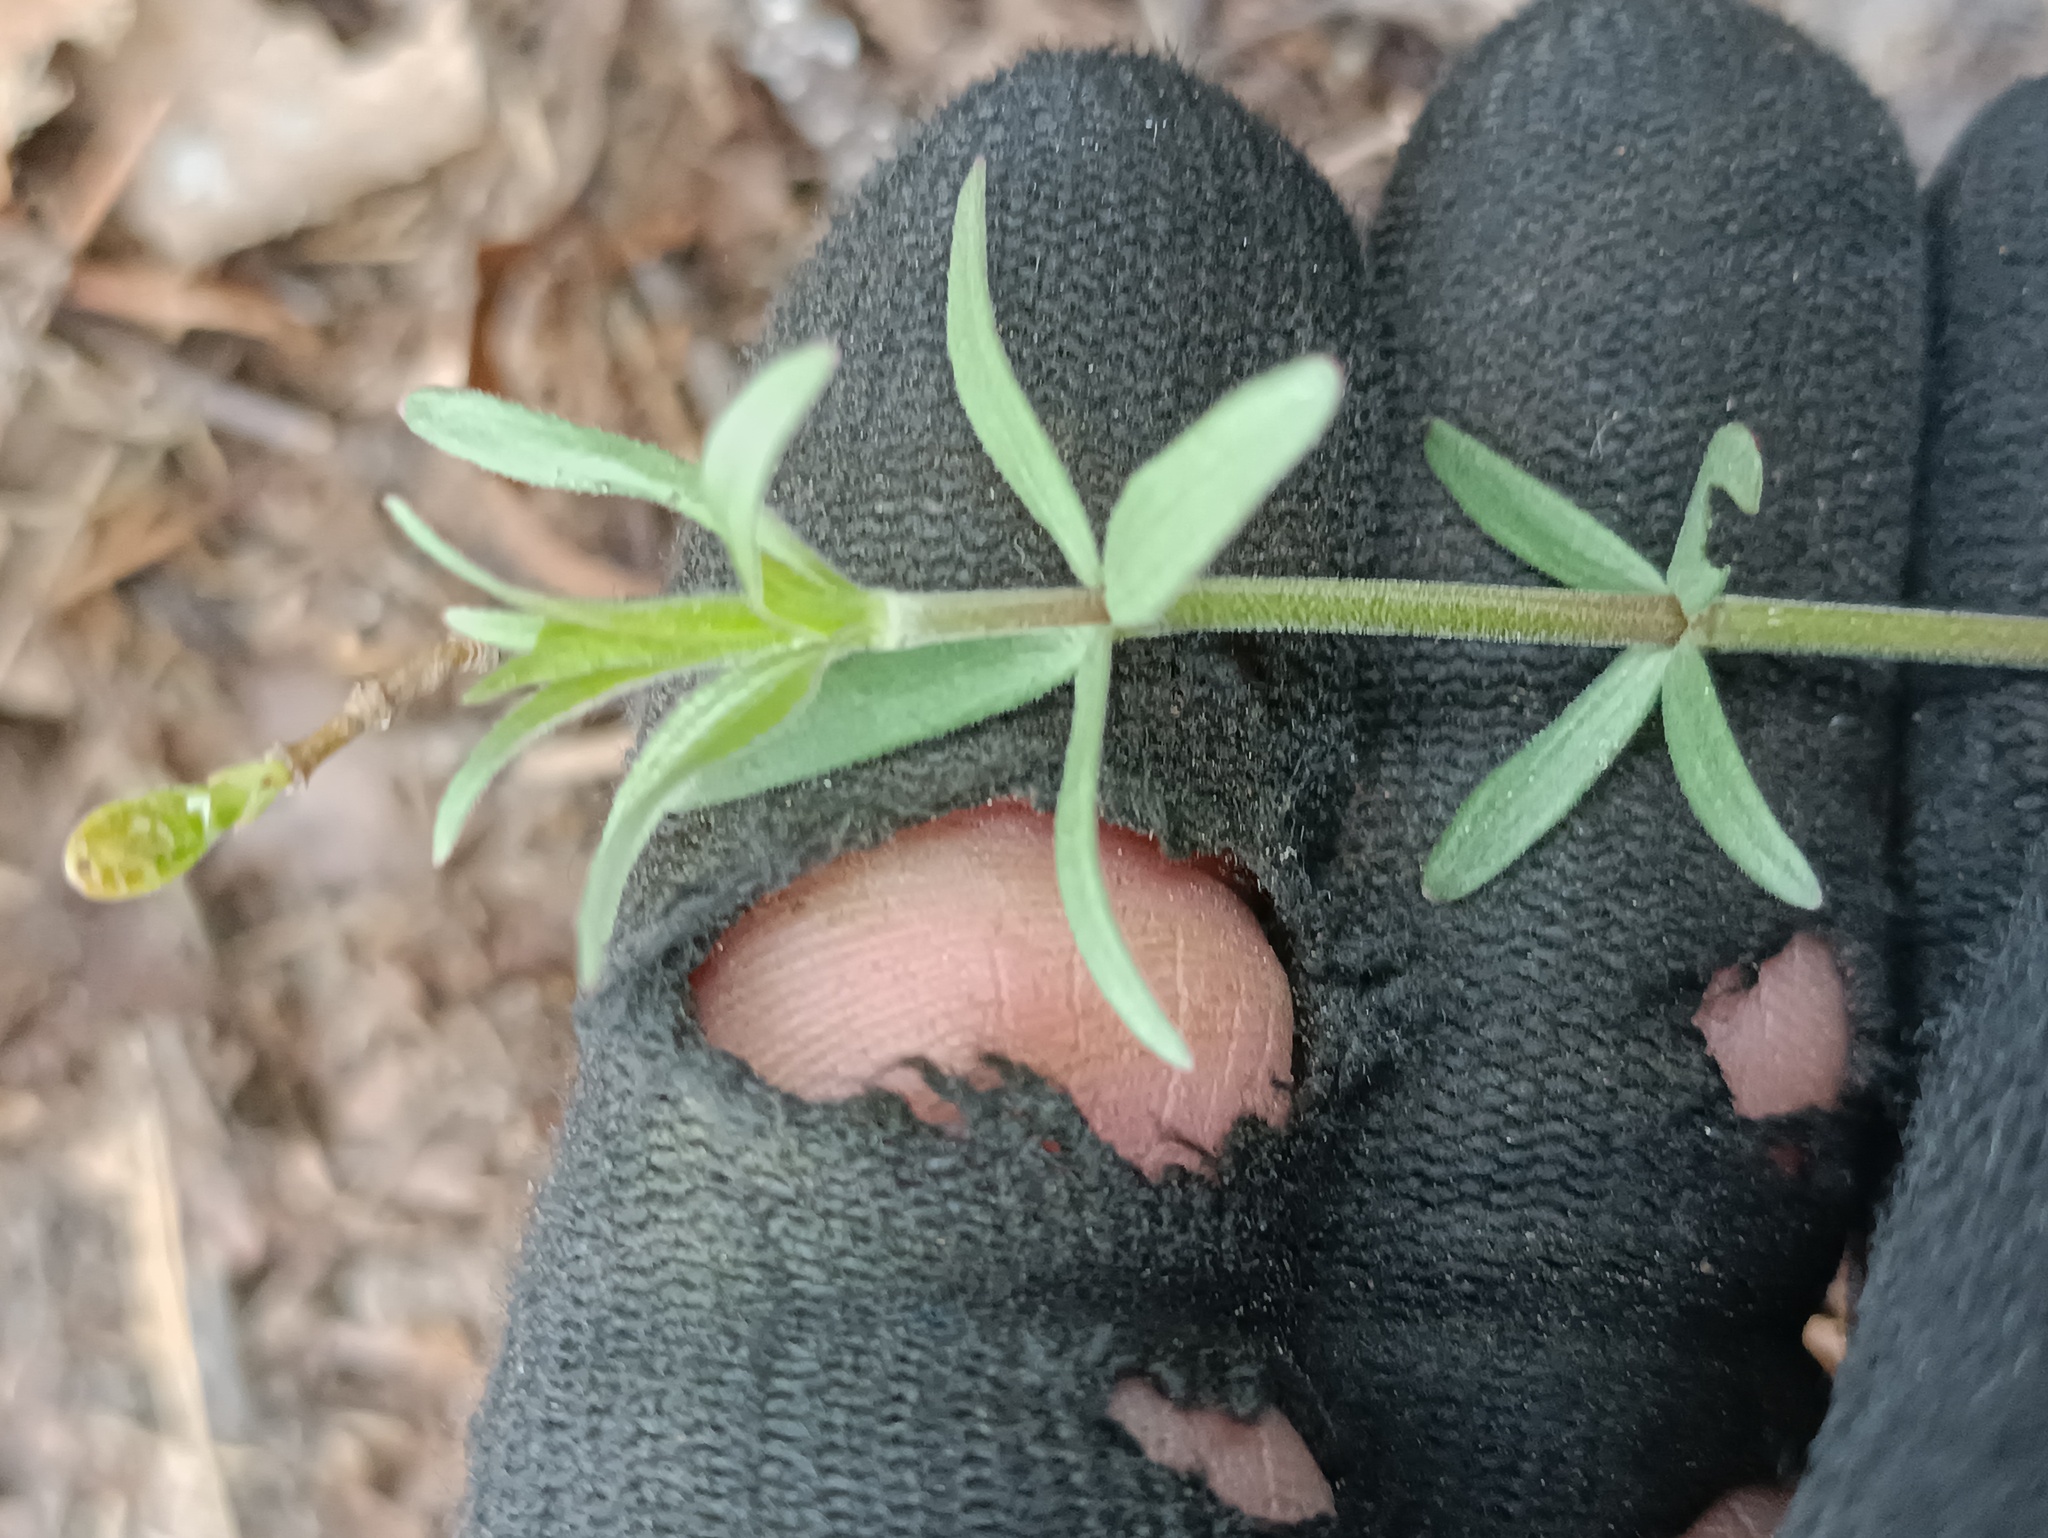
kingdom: Plantae
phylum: Tracheophyta
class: Magnoliopsida
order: Gentianales
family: Rubiaceae
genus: Galium
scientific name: Galium boreale
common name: Northern bedstraw
